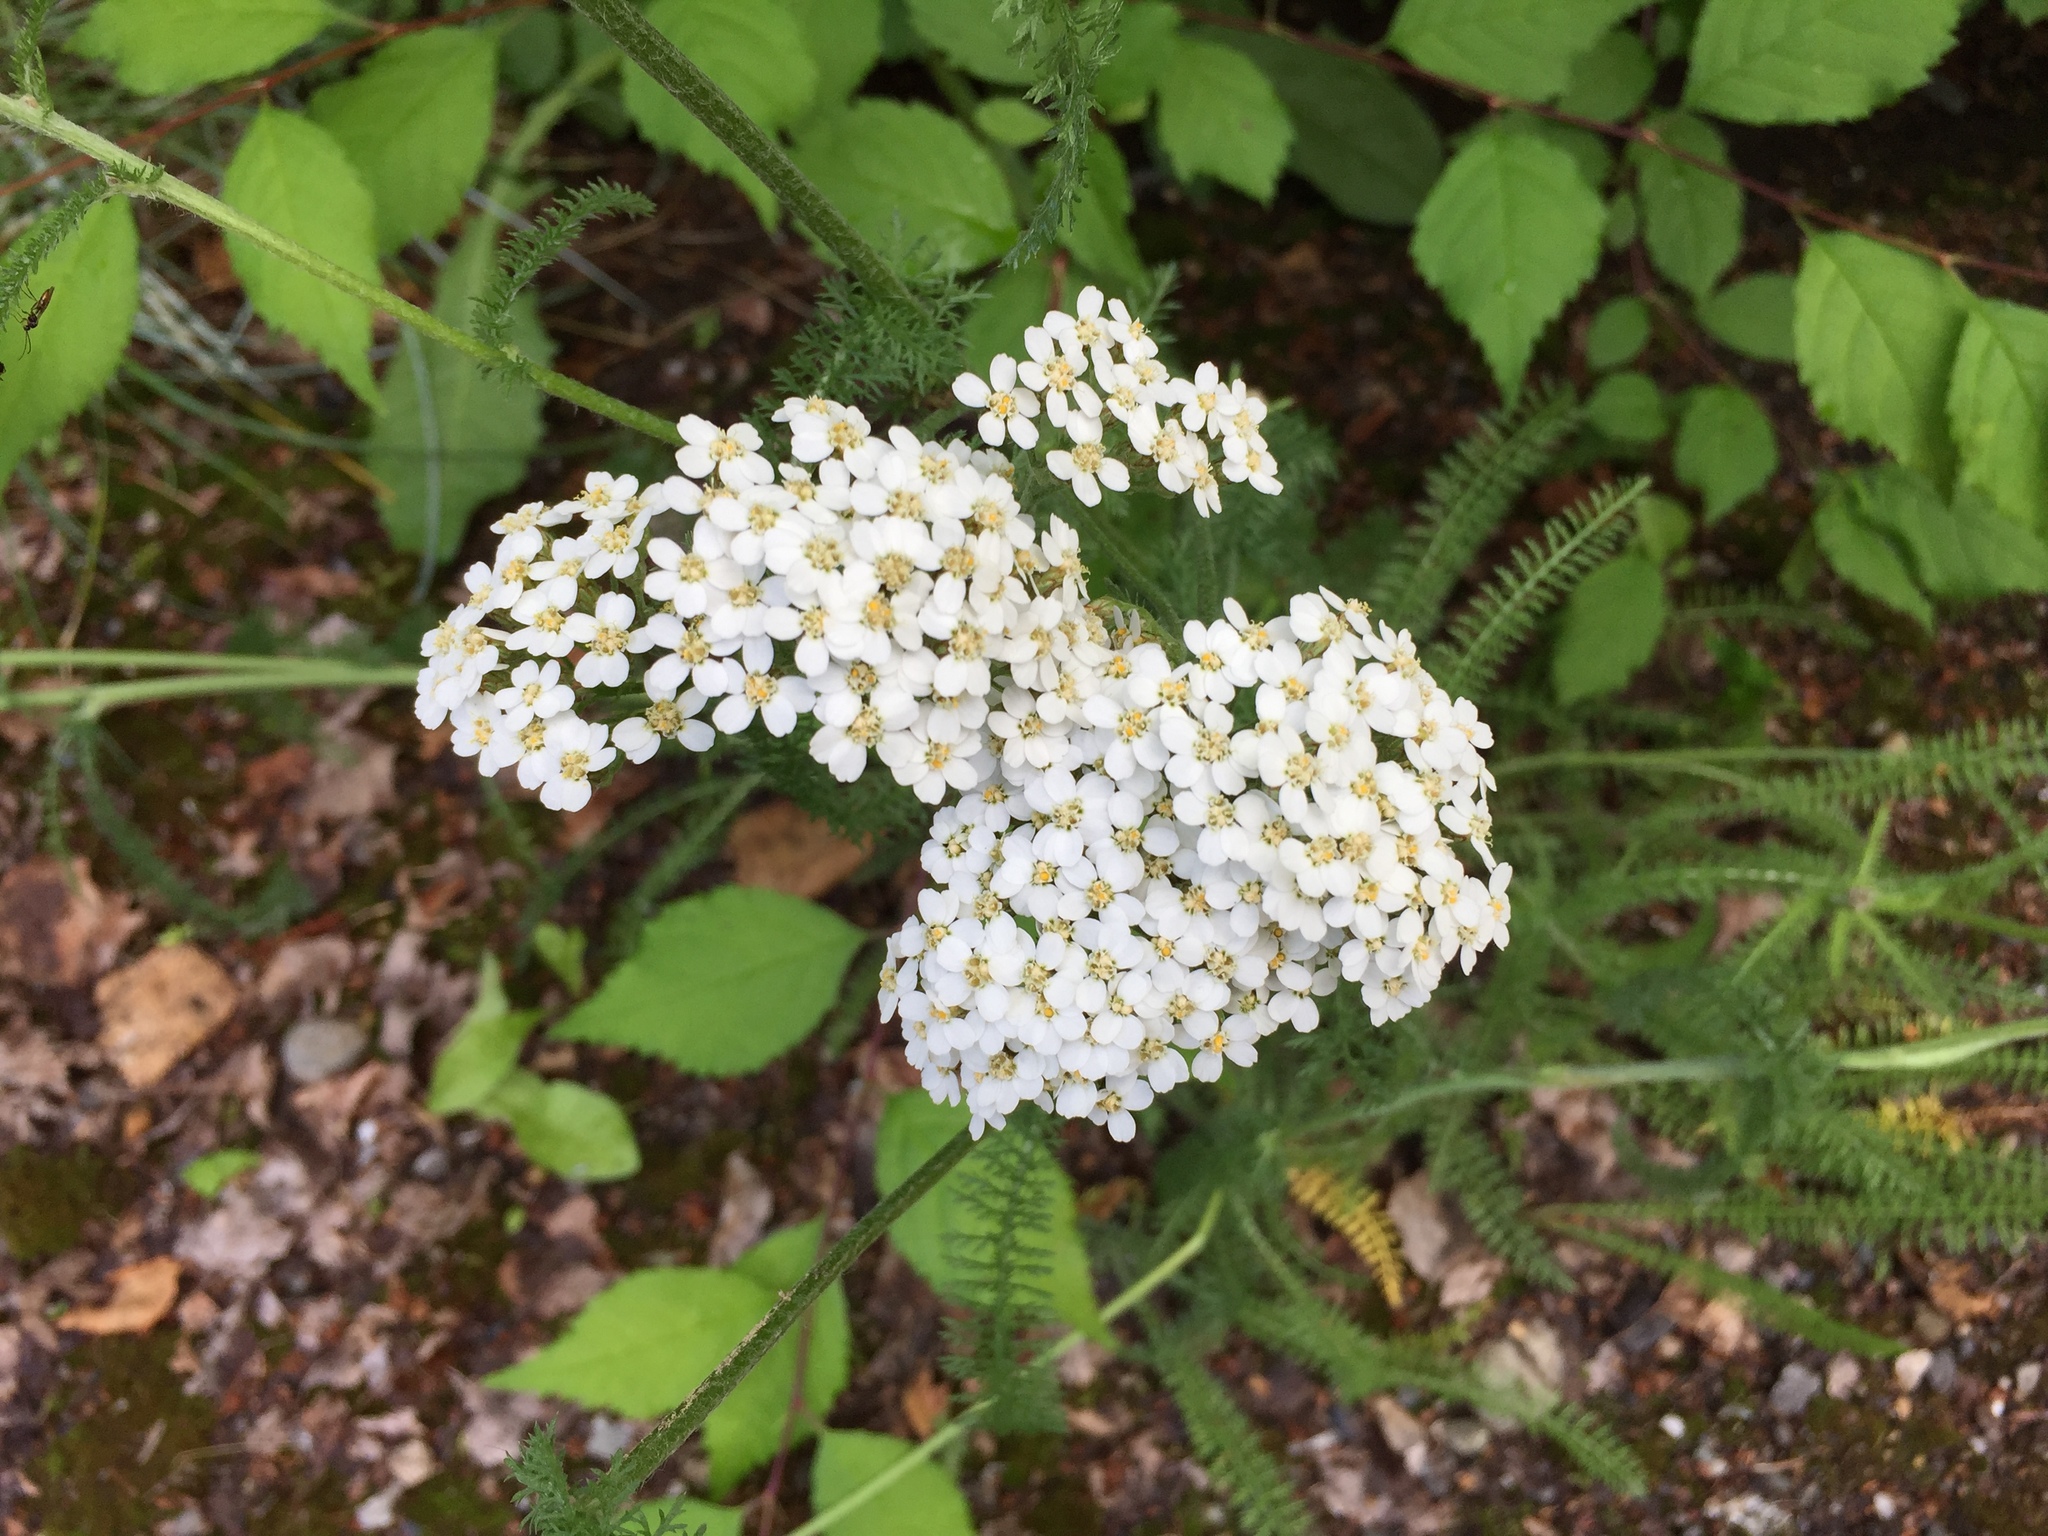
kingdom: Plantae
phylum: Tracheophyta
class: Magnoliopsida
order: Asterales
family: Asteraceae
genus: Achillea
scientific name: Achillea millefolium
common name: Yarrow
